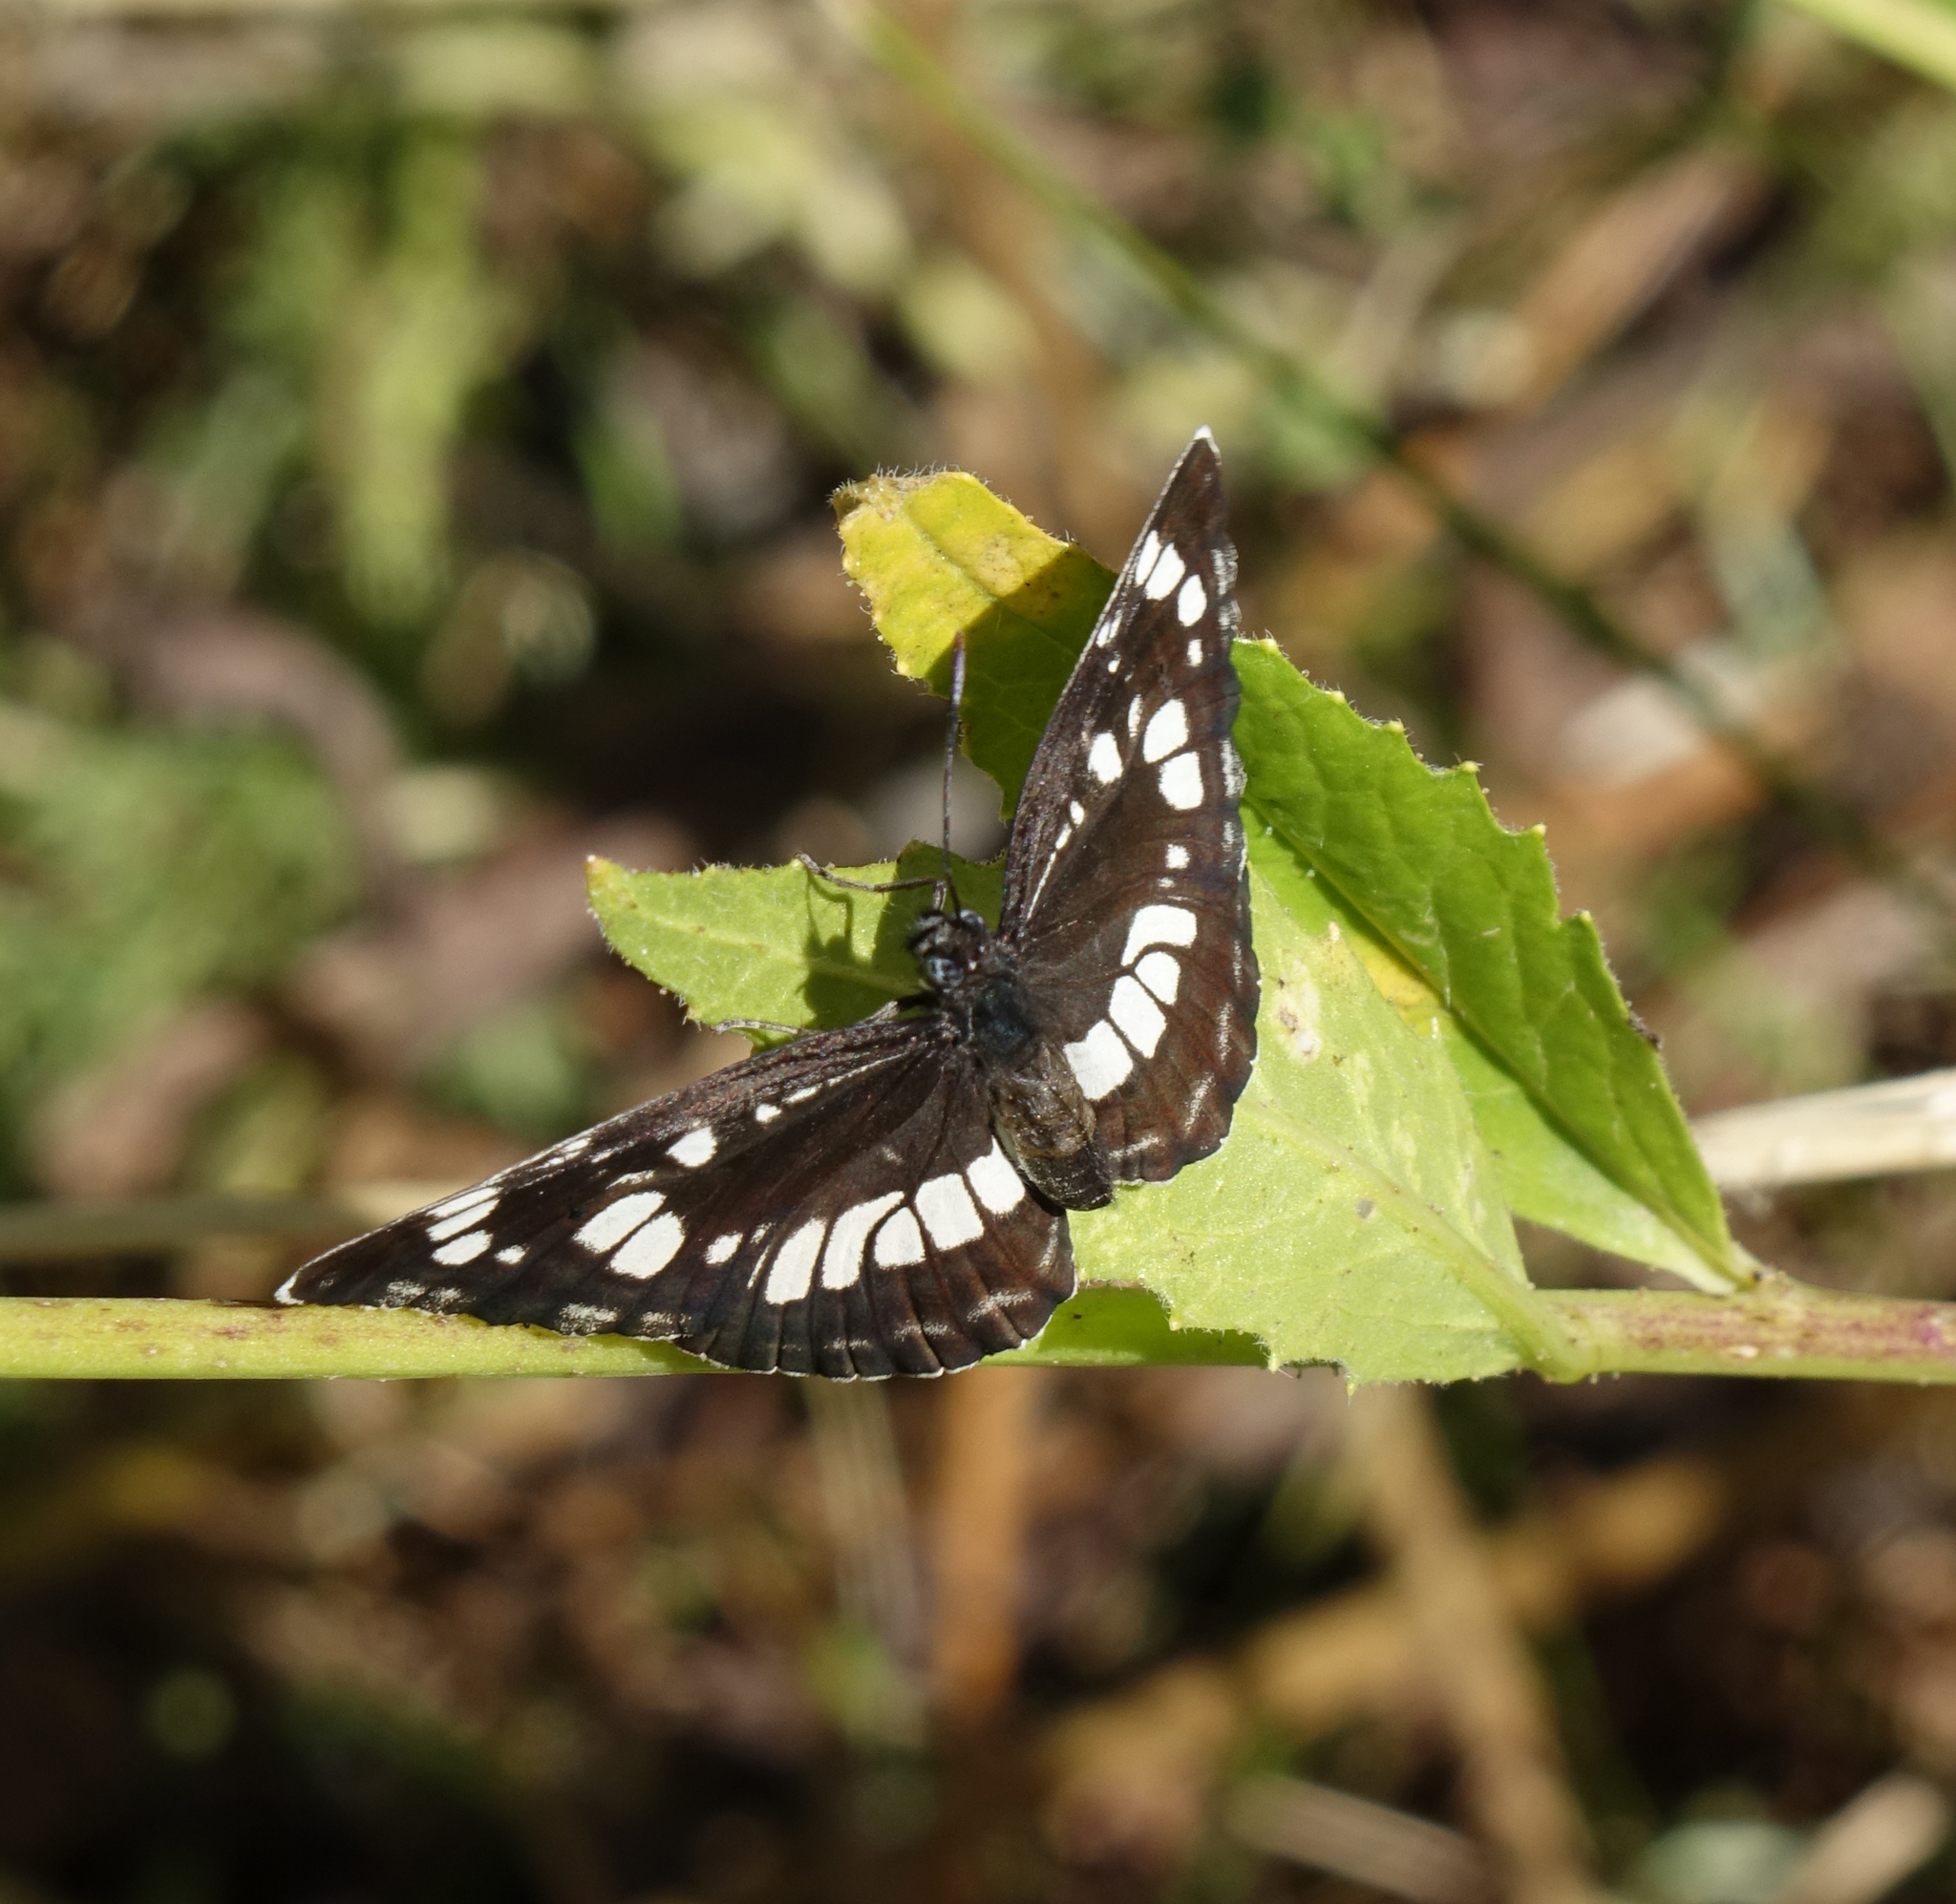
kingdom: Animalia
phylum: Arthropoda
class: Insecta
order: Lepidoptera
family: Nymphalidae
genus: Neptis
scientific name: Neptis rivularis
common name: Hungarian glider
